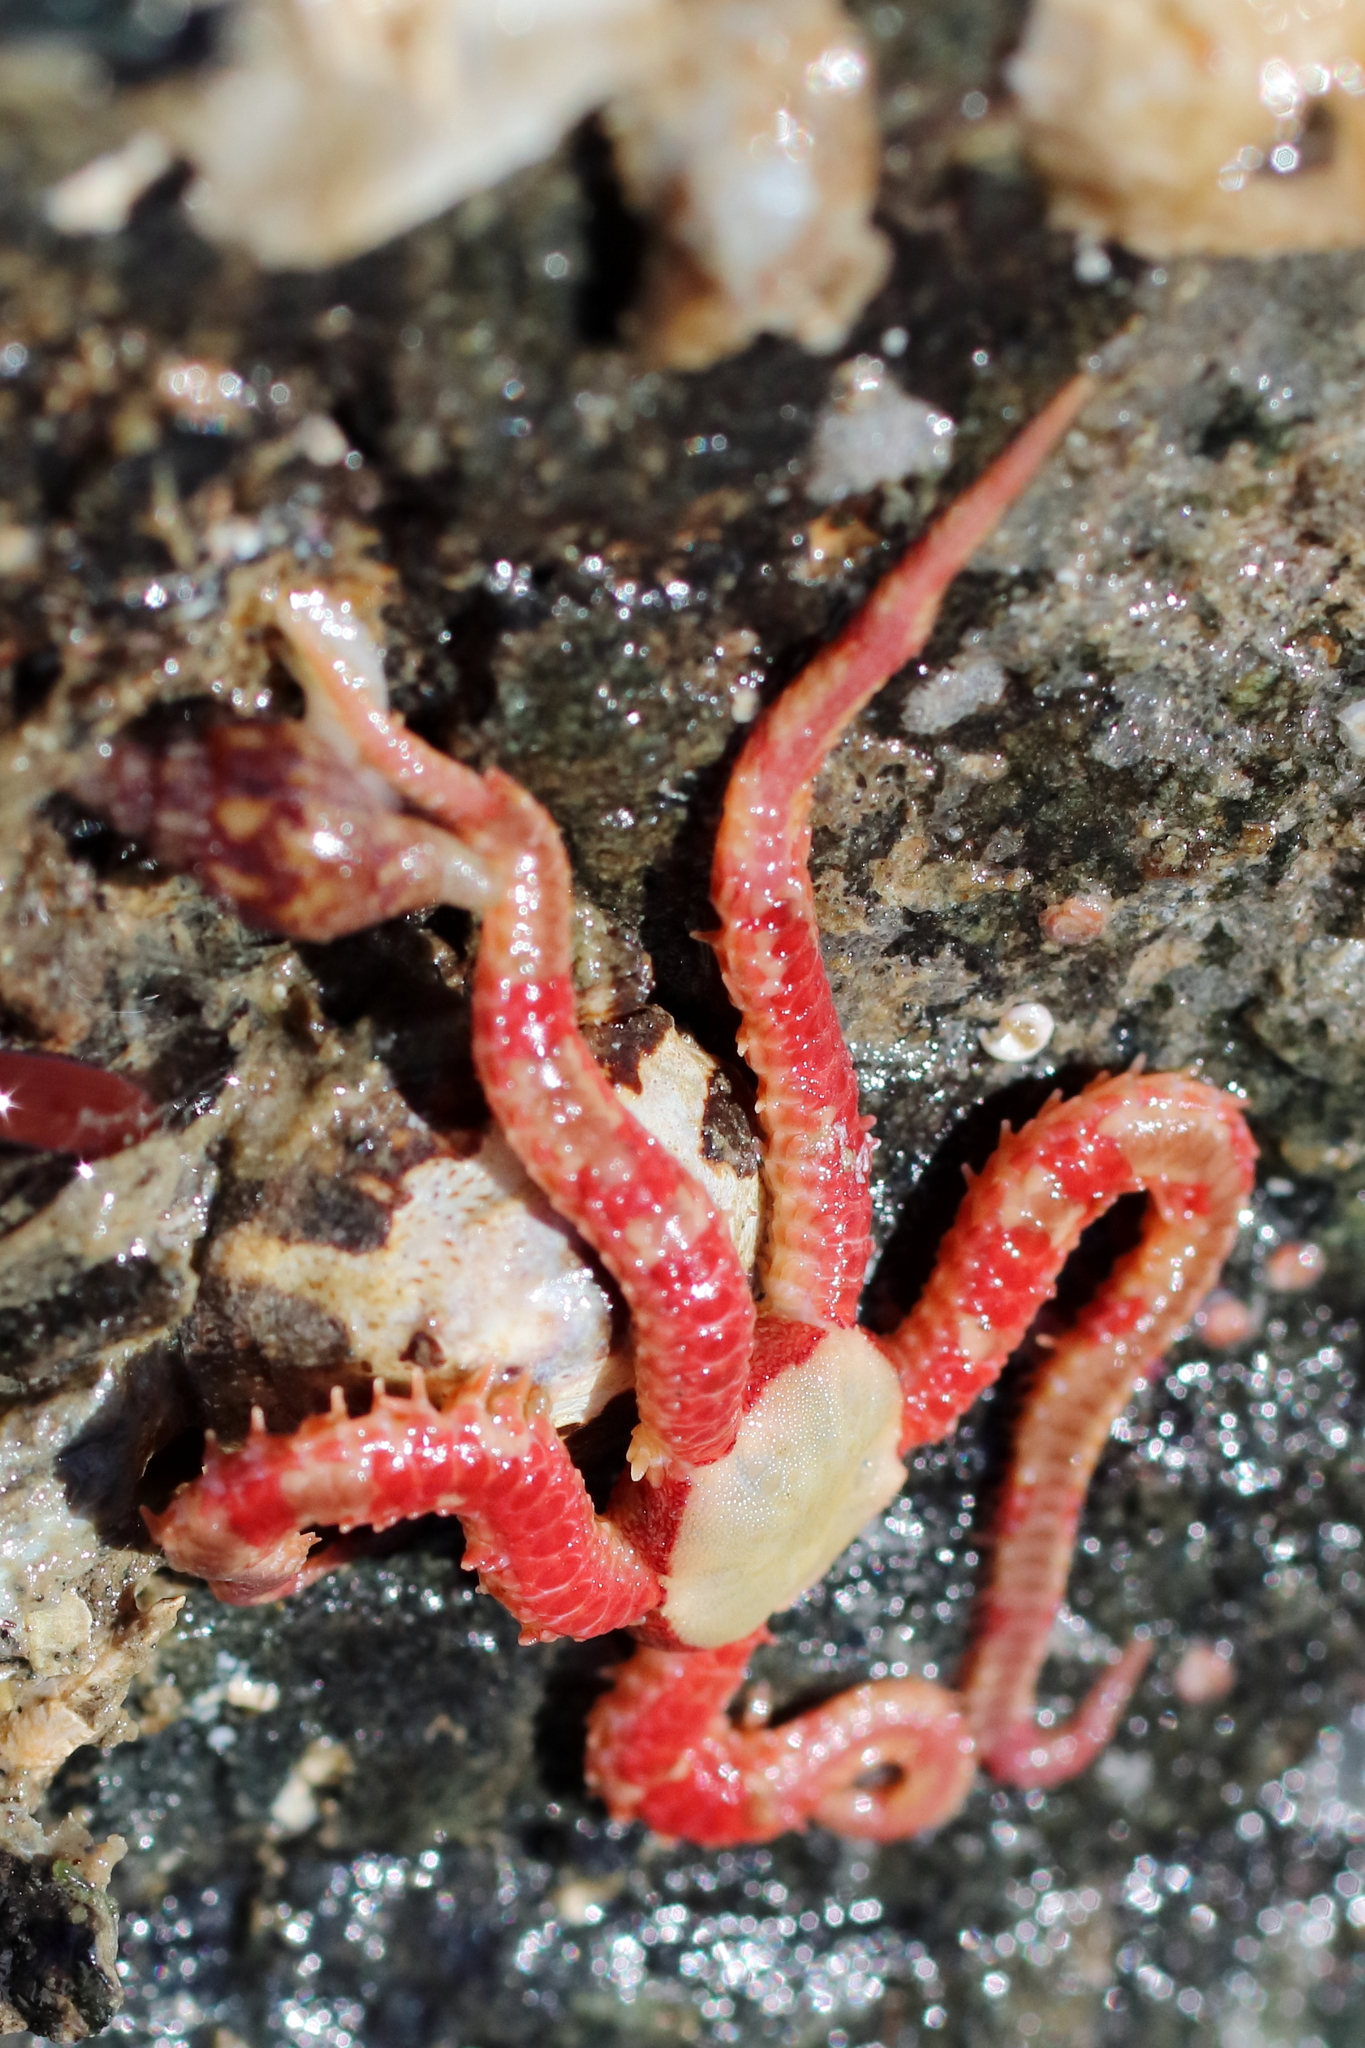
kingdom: Animalia
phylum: Echinodermata
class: Ophiuroidea
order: Amphilepidida
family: Ophiopholidae
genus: Ophiopholis
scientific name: Ophiopholis kennerlyi
